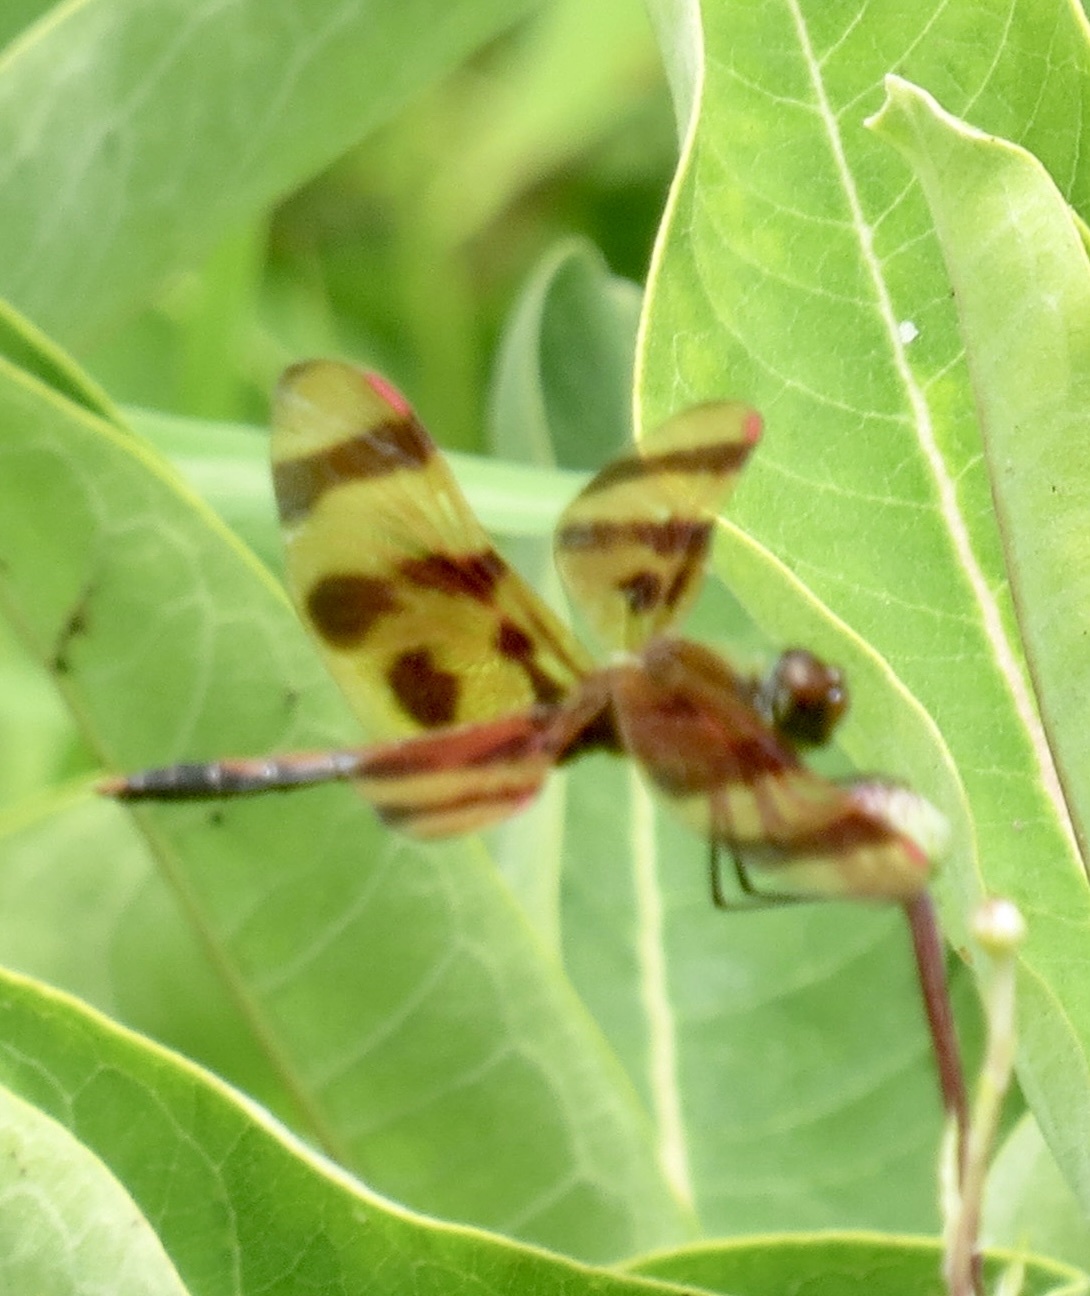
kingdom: Animalia
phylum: Arthropoda
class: Insecta
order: Odonata
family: Libellulidae
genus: Celithemis
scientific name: Celithemis eponina
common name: Halloween pennant
